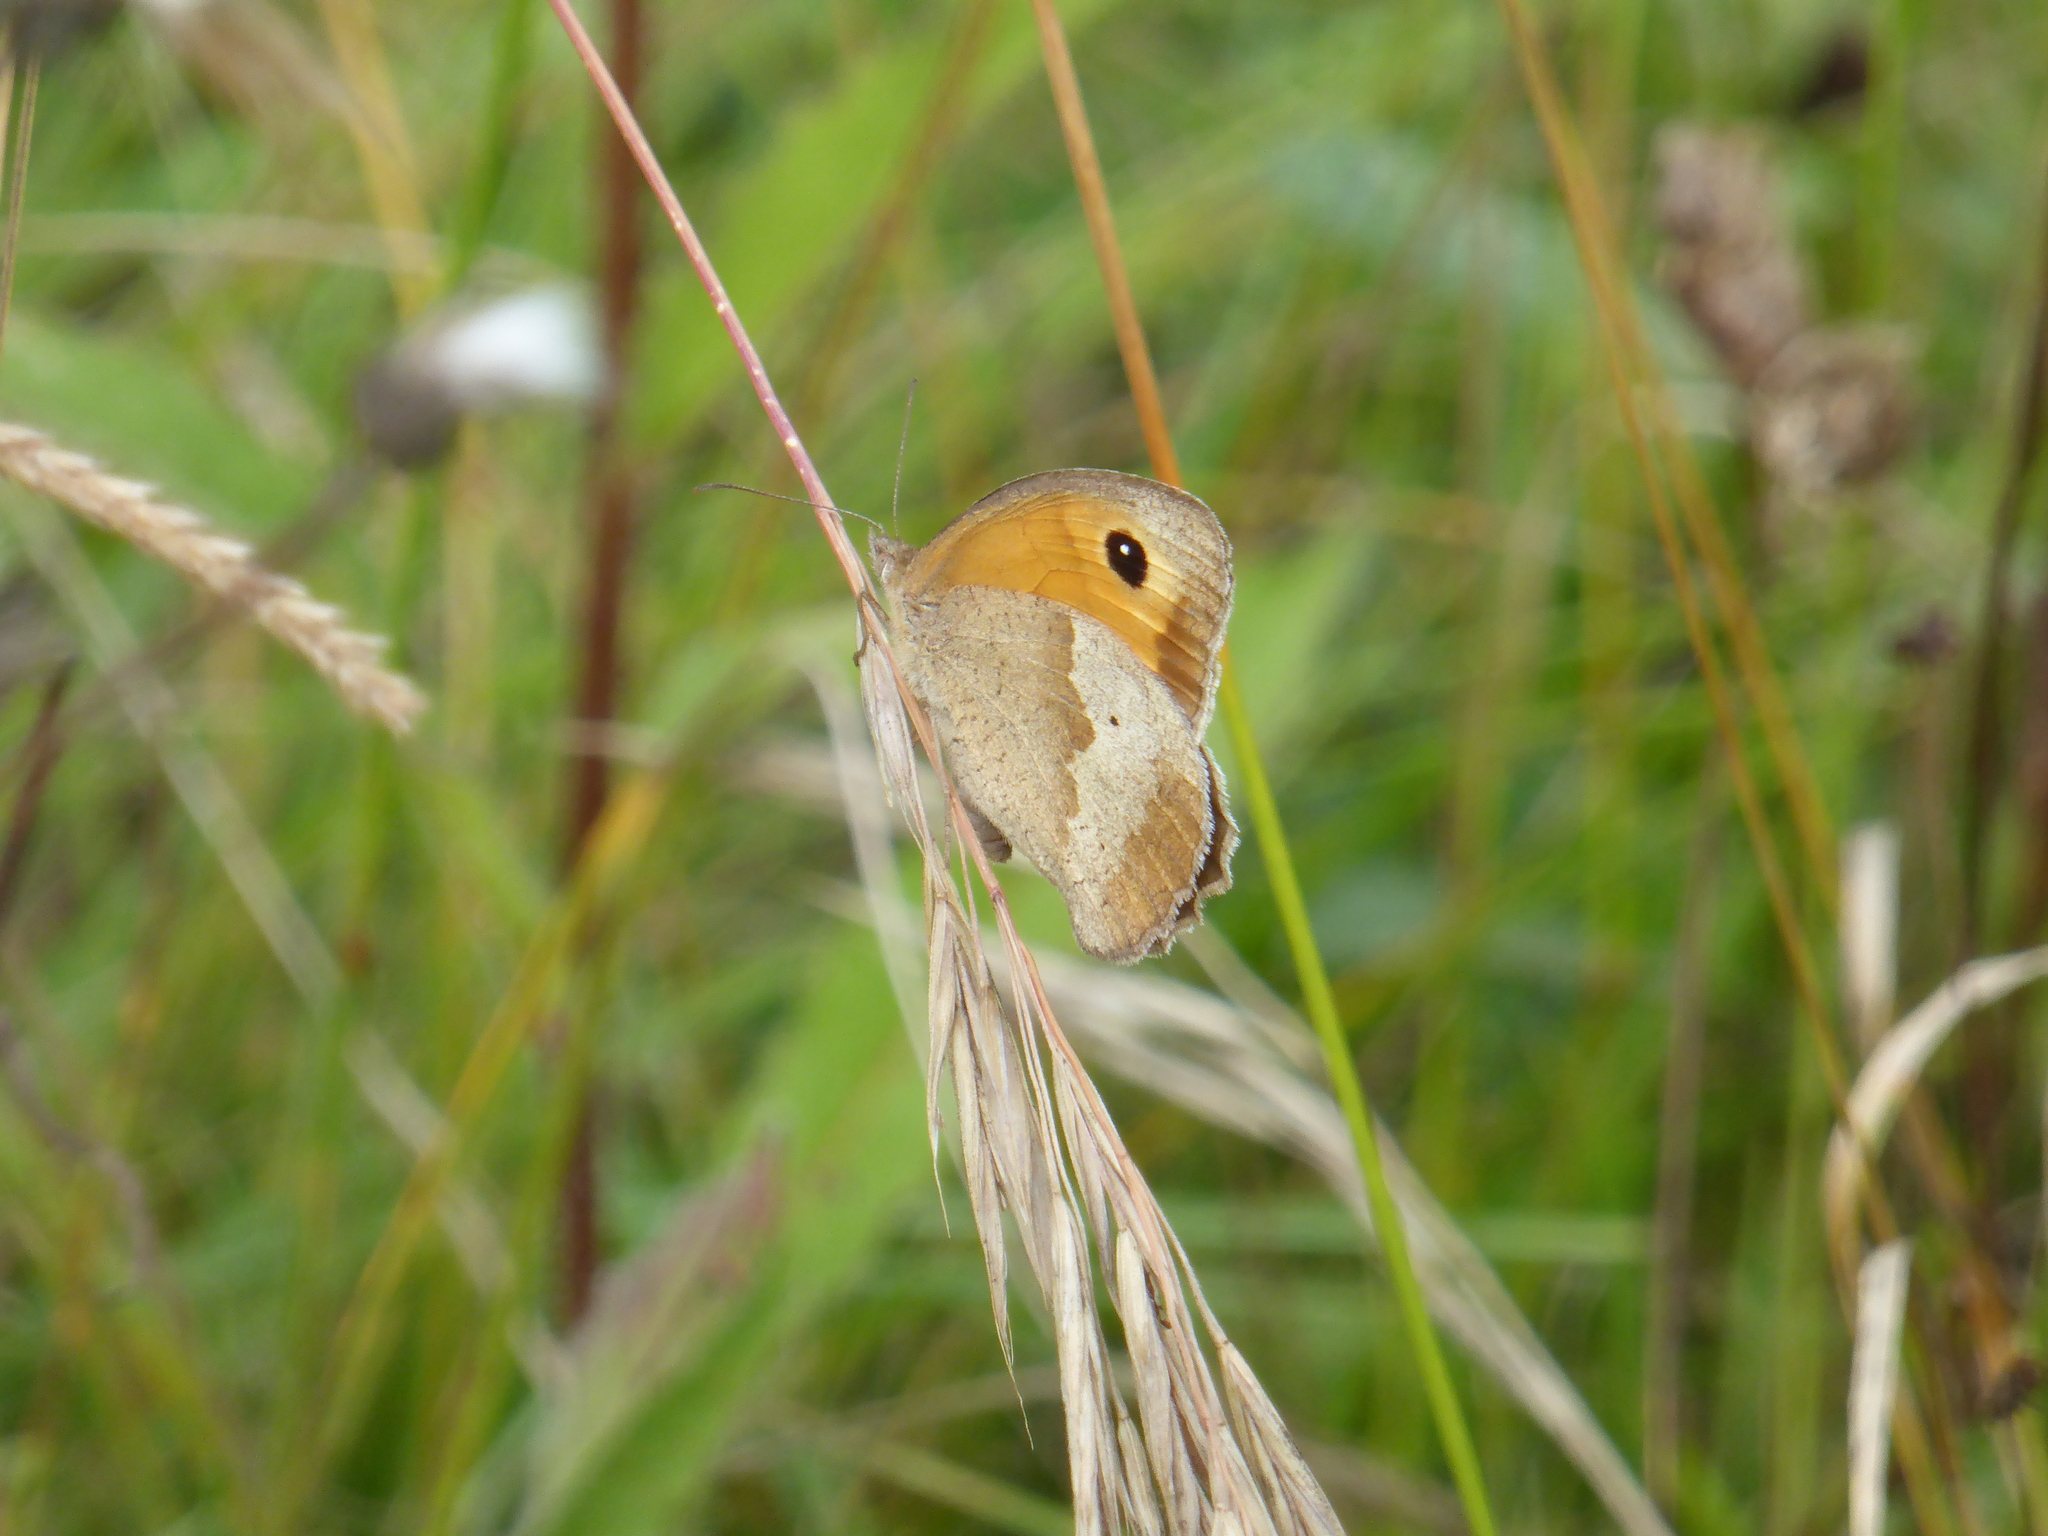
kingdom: Animalia
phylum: Arthropoda
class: Insecta
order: Lepidoptera
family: Nymphalidae
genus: Maniola
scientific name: Maniola jurtina
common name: Meadow brown
